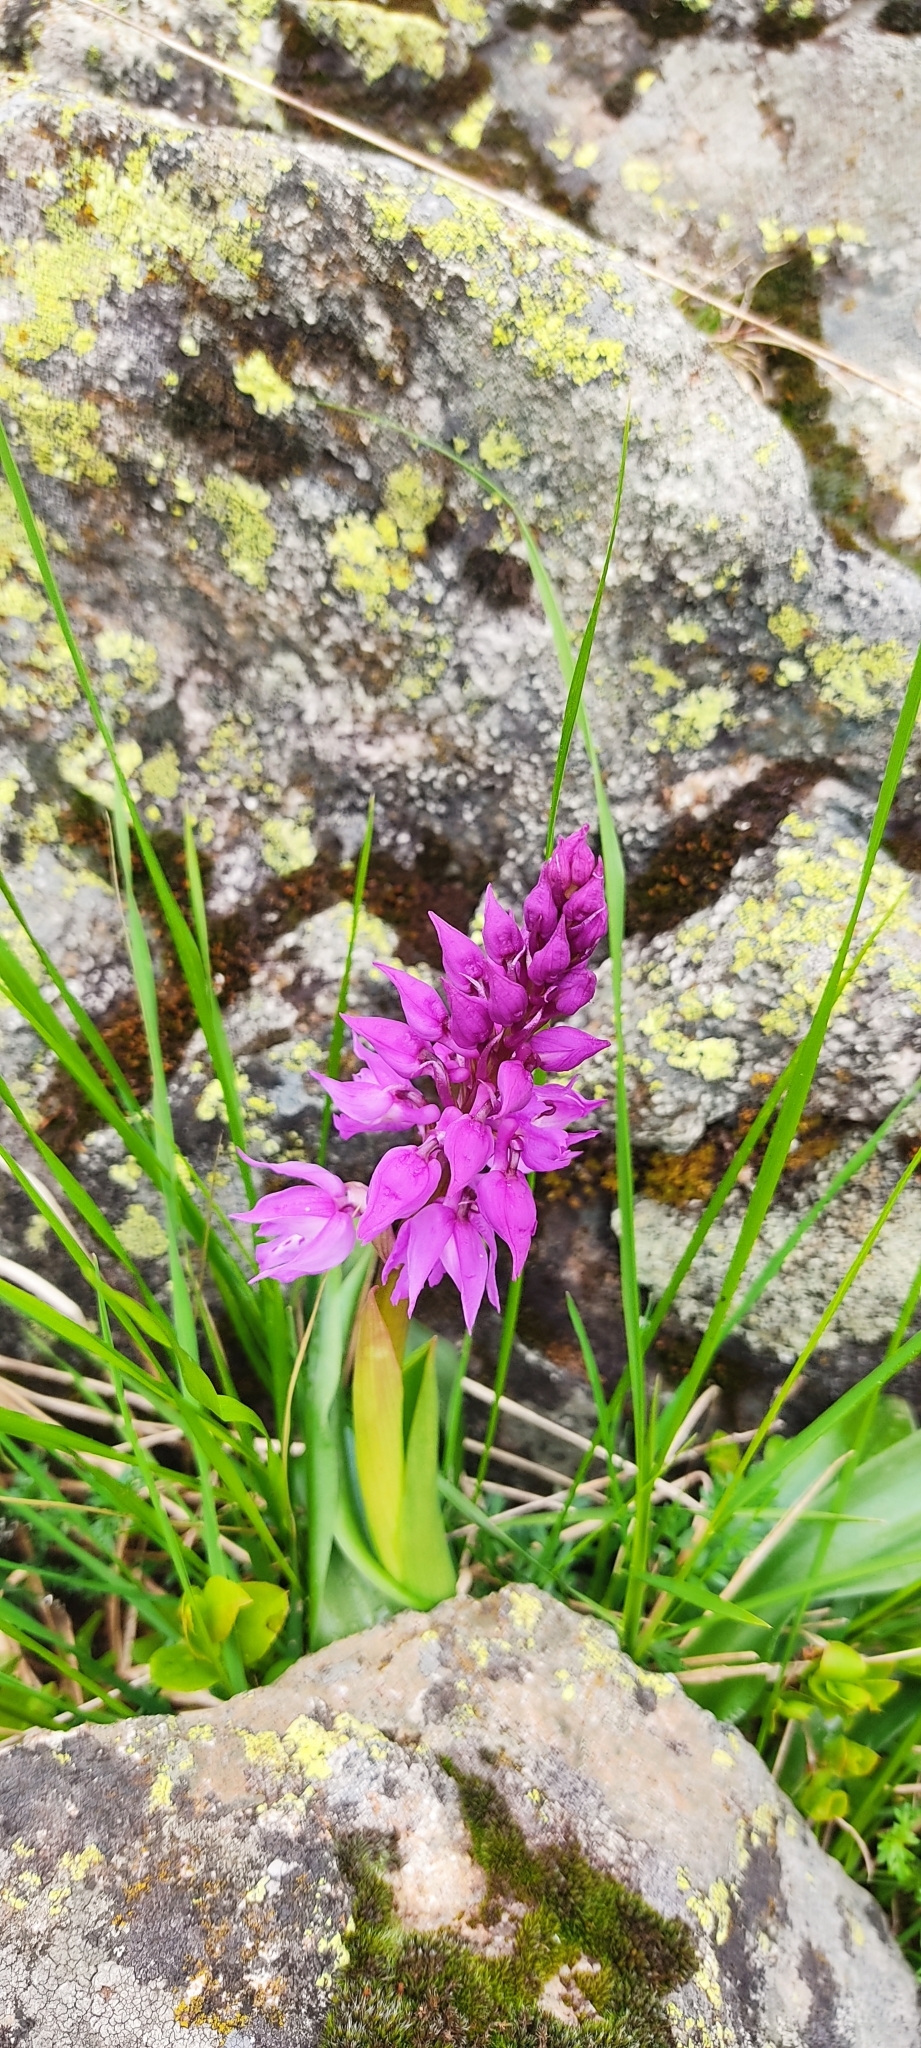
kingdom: Plantae
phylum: Tracheophyta
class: Liliopsida
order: Asparagales
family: Orchidaceae
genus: Orchis
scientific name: Orchis mascula
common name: Early-purple orchid
